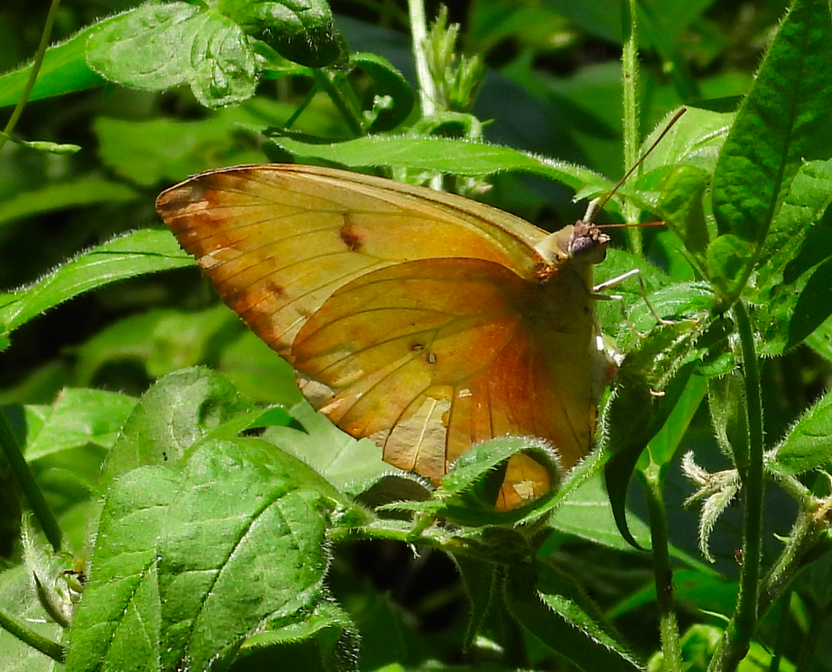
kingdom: Animalia
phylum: Arthropoda
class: Insecta
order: Lepidoptera
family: Pieridae
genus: Phoebis
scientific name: Phoebis philea
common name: Orange-barred giant sulphur
